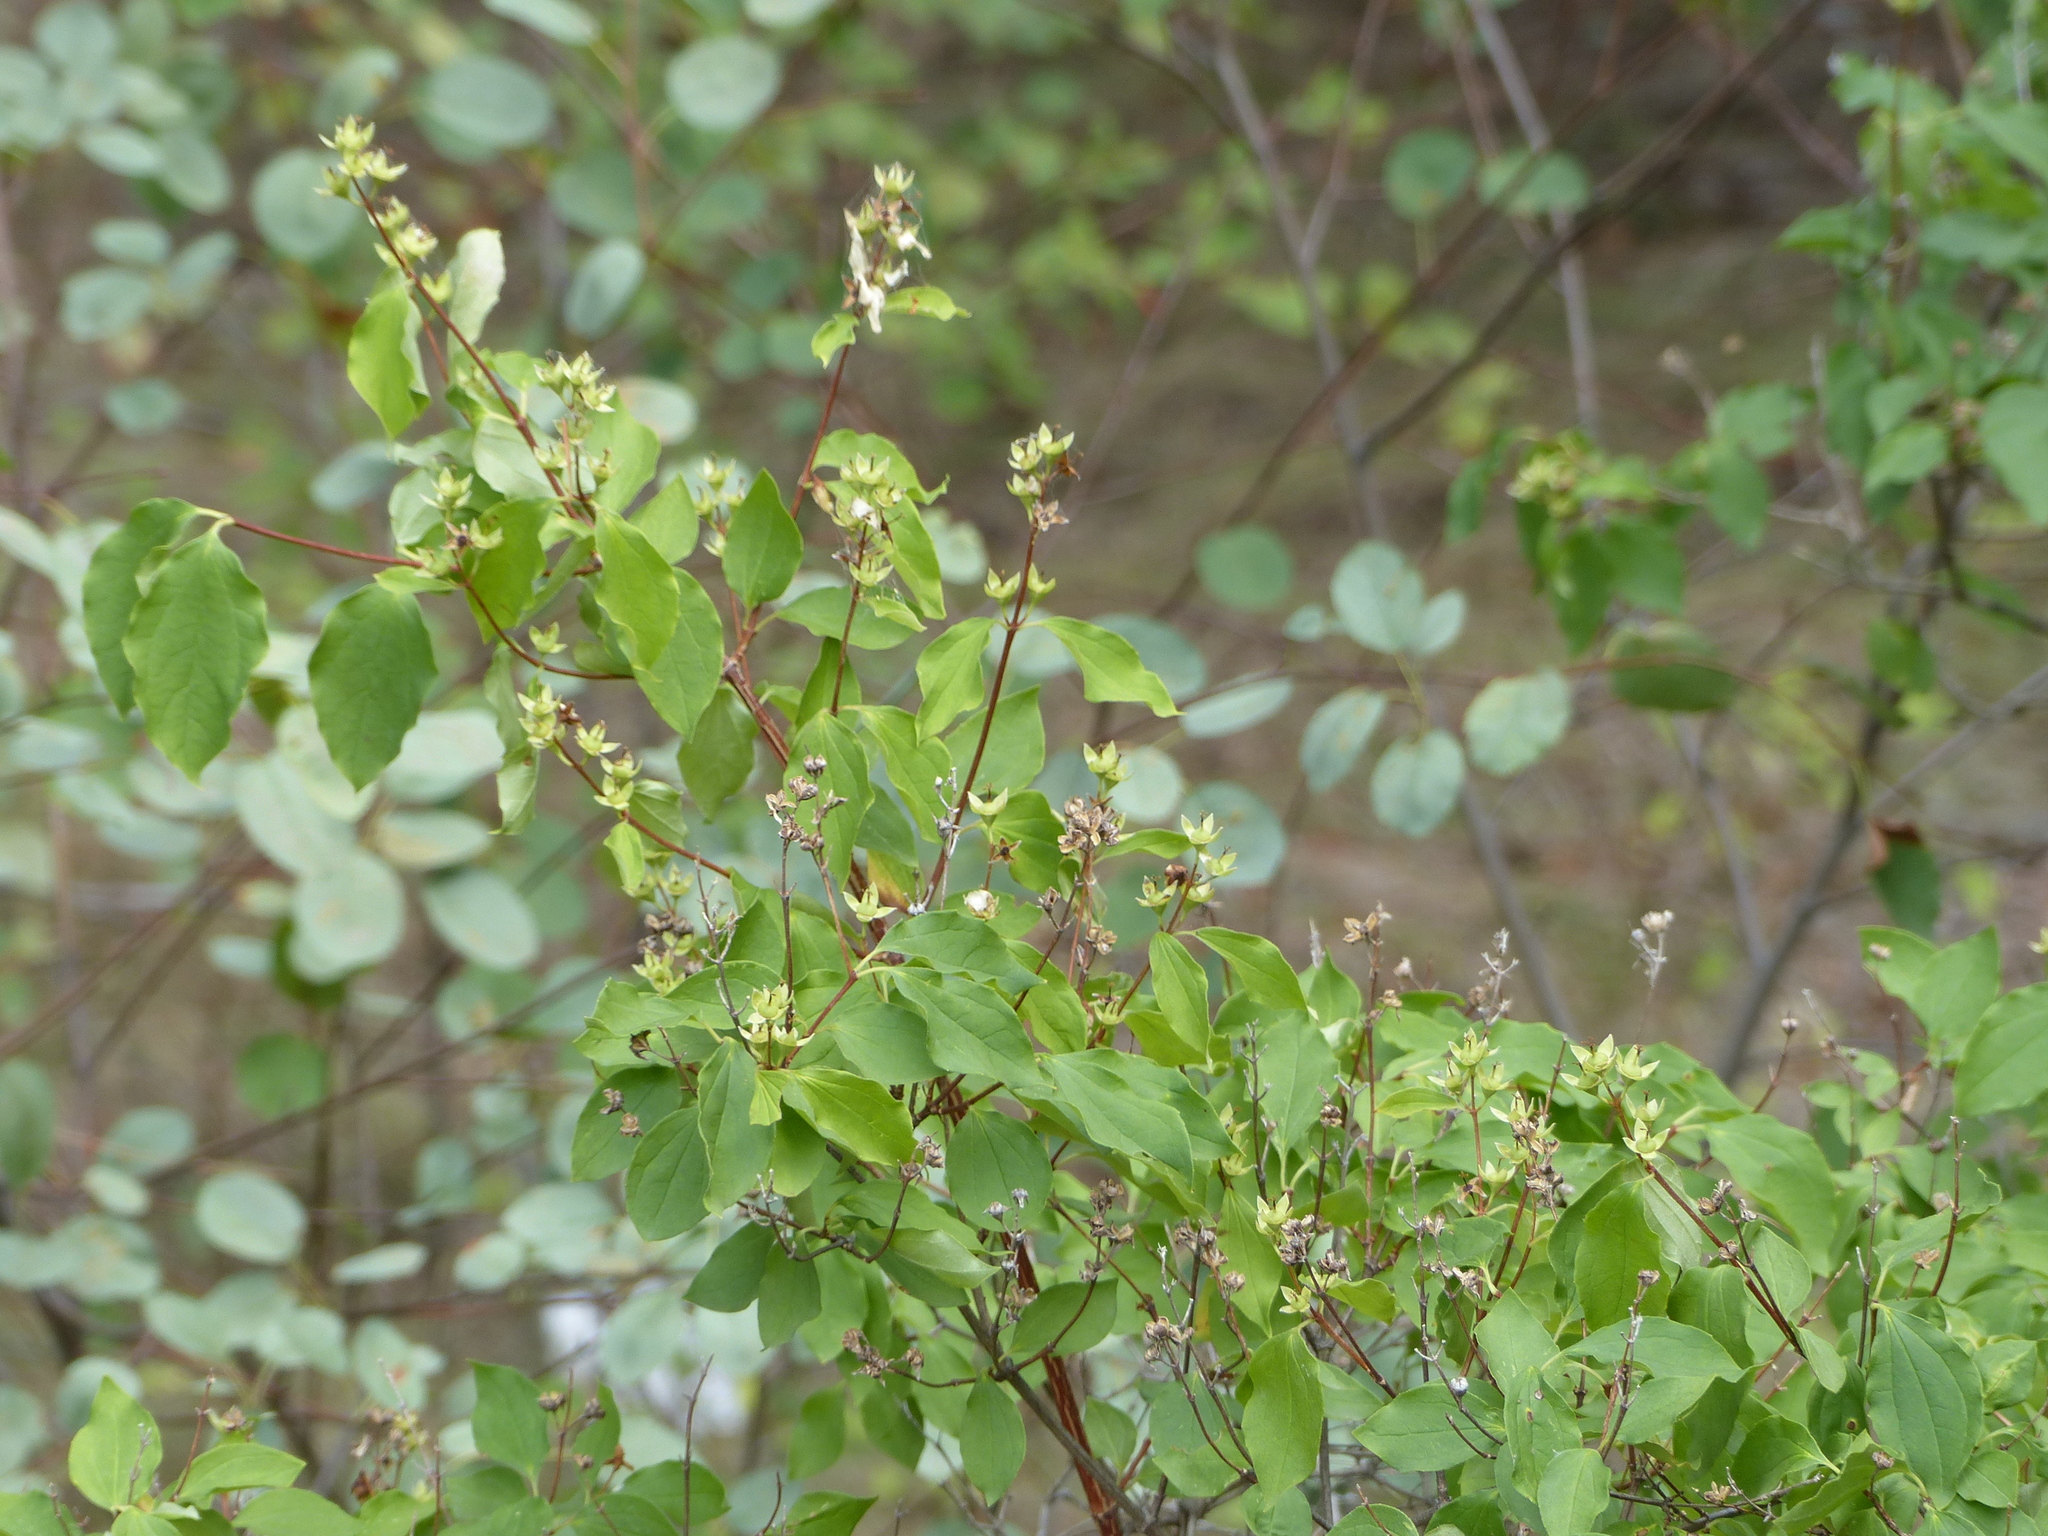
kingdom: Plantae
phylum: Tracheophyta
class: Magnoliopsida
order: Cornales
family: Hydrangeaceae
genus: Philadelphus
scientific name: Philadelphus lewisii
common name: Lewis's mock orange
